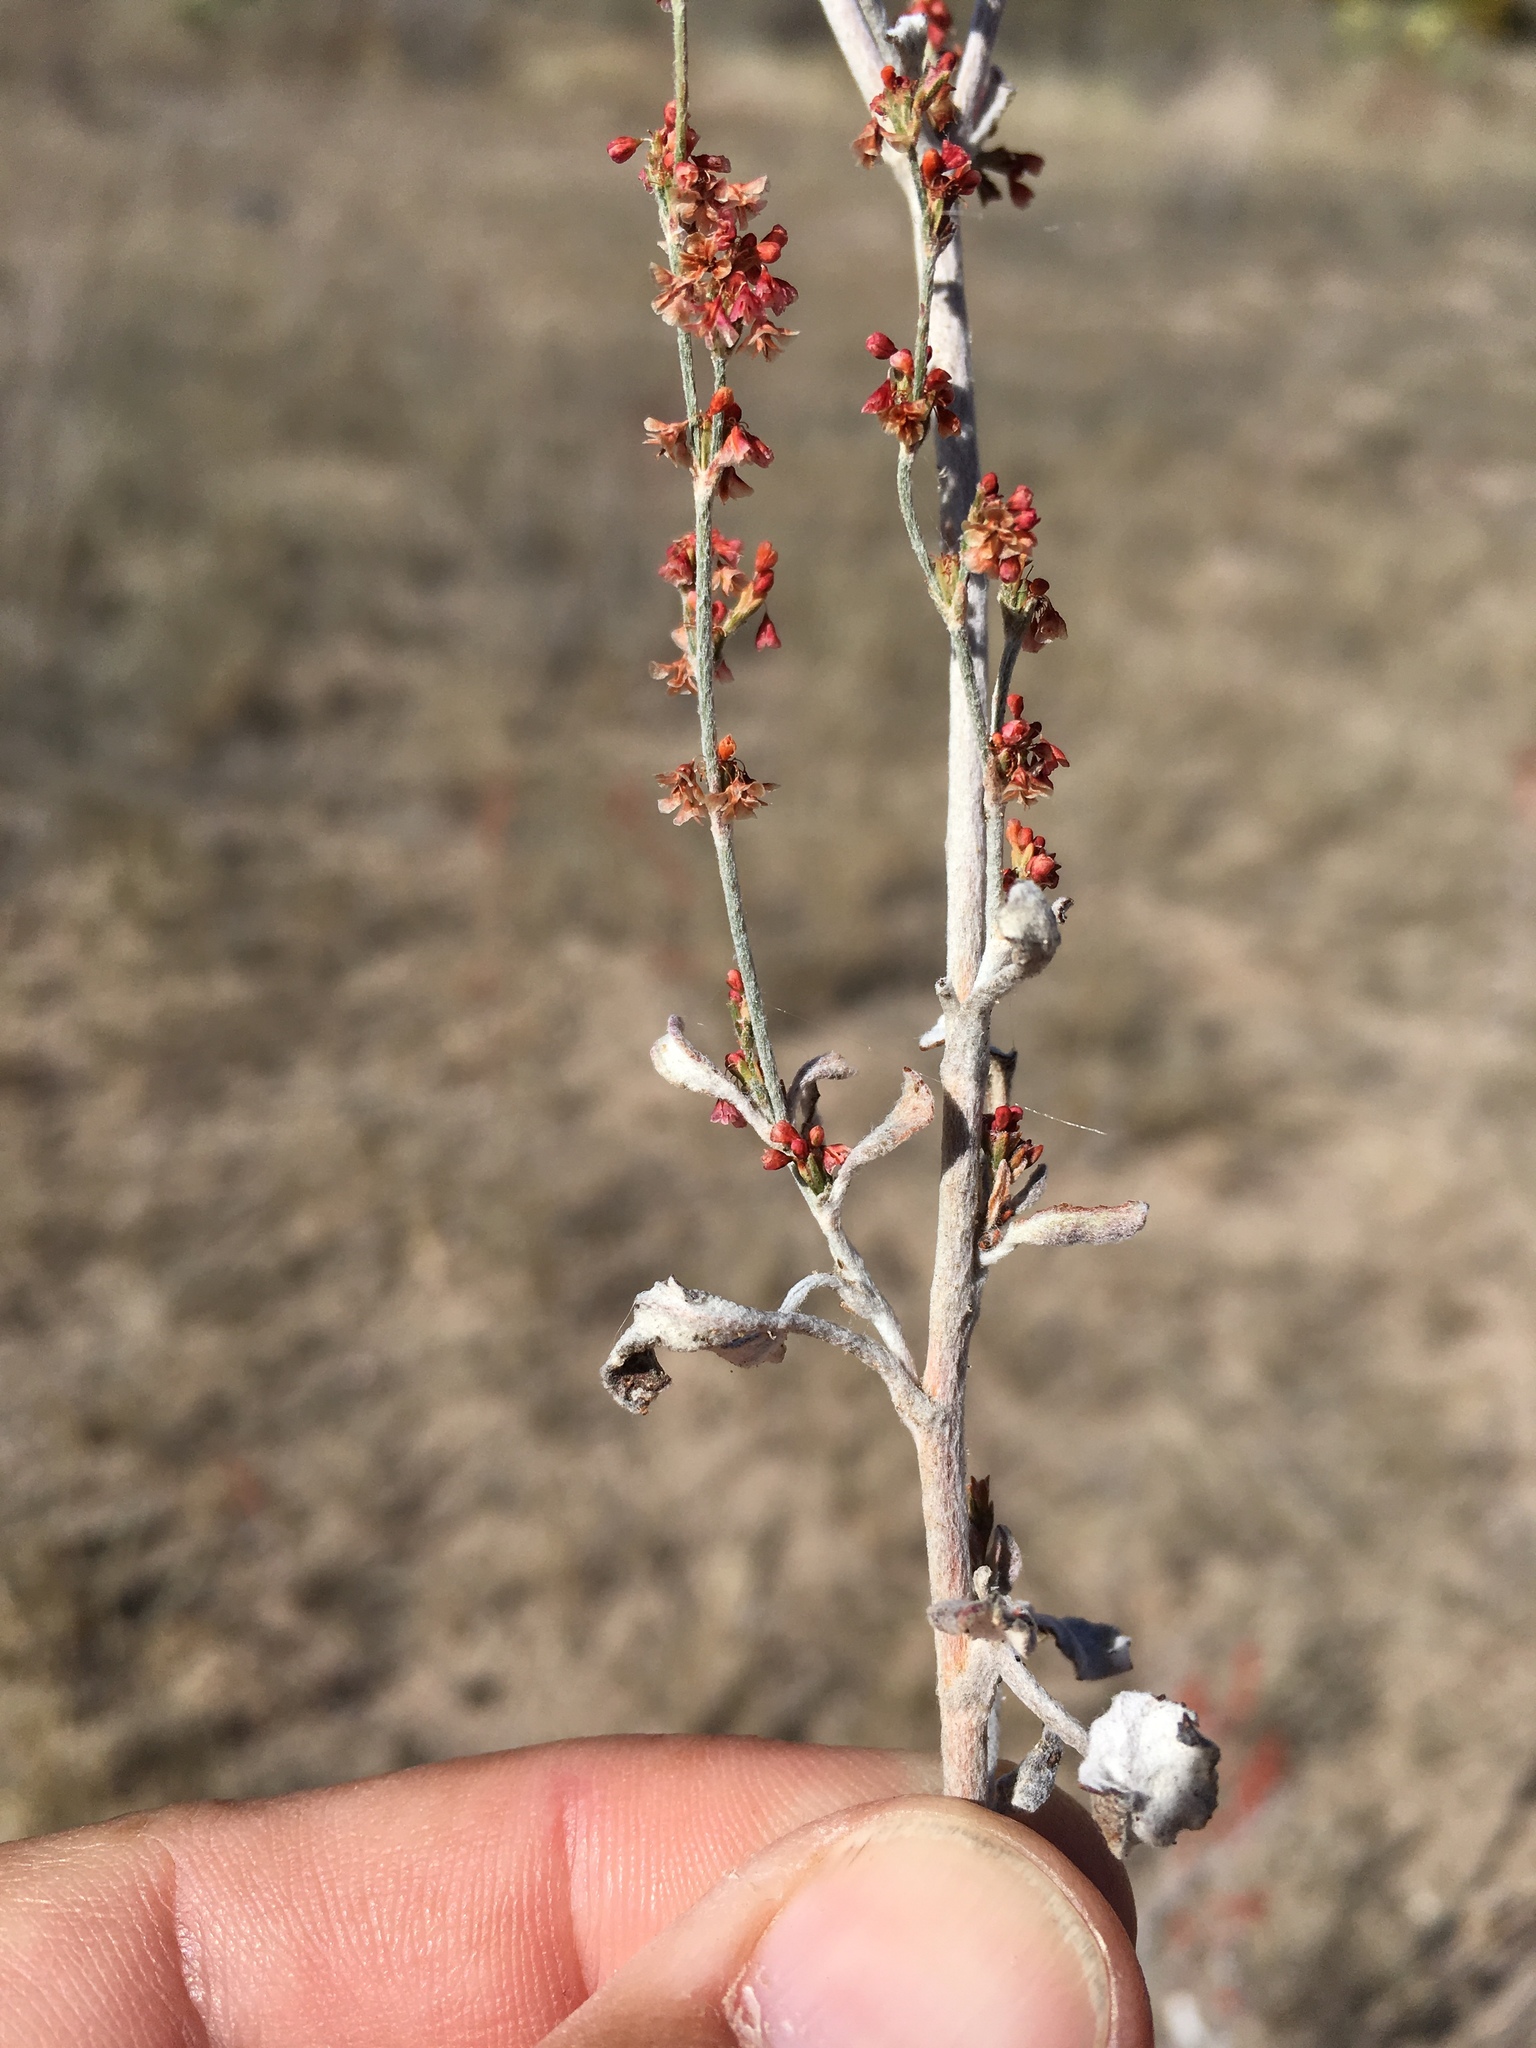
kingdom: Plantae
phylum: Tracheophyta
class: Magnoliopsida
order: Caryophyllales
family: Polygonaceae
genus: Eriogonum
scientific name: Eriogonum polycladon
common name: Sorrel wild buckwheat
